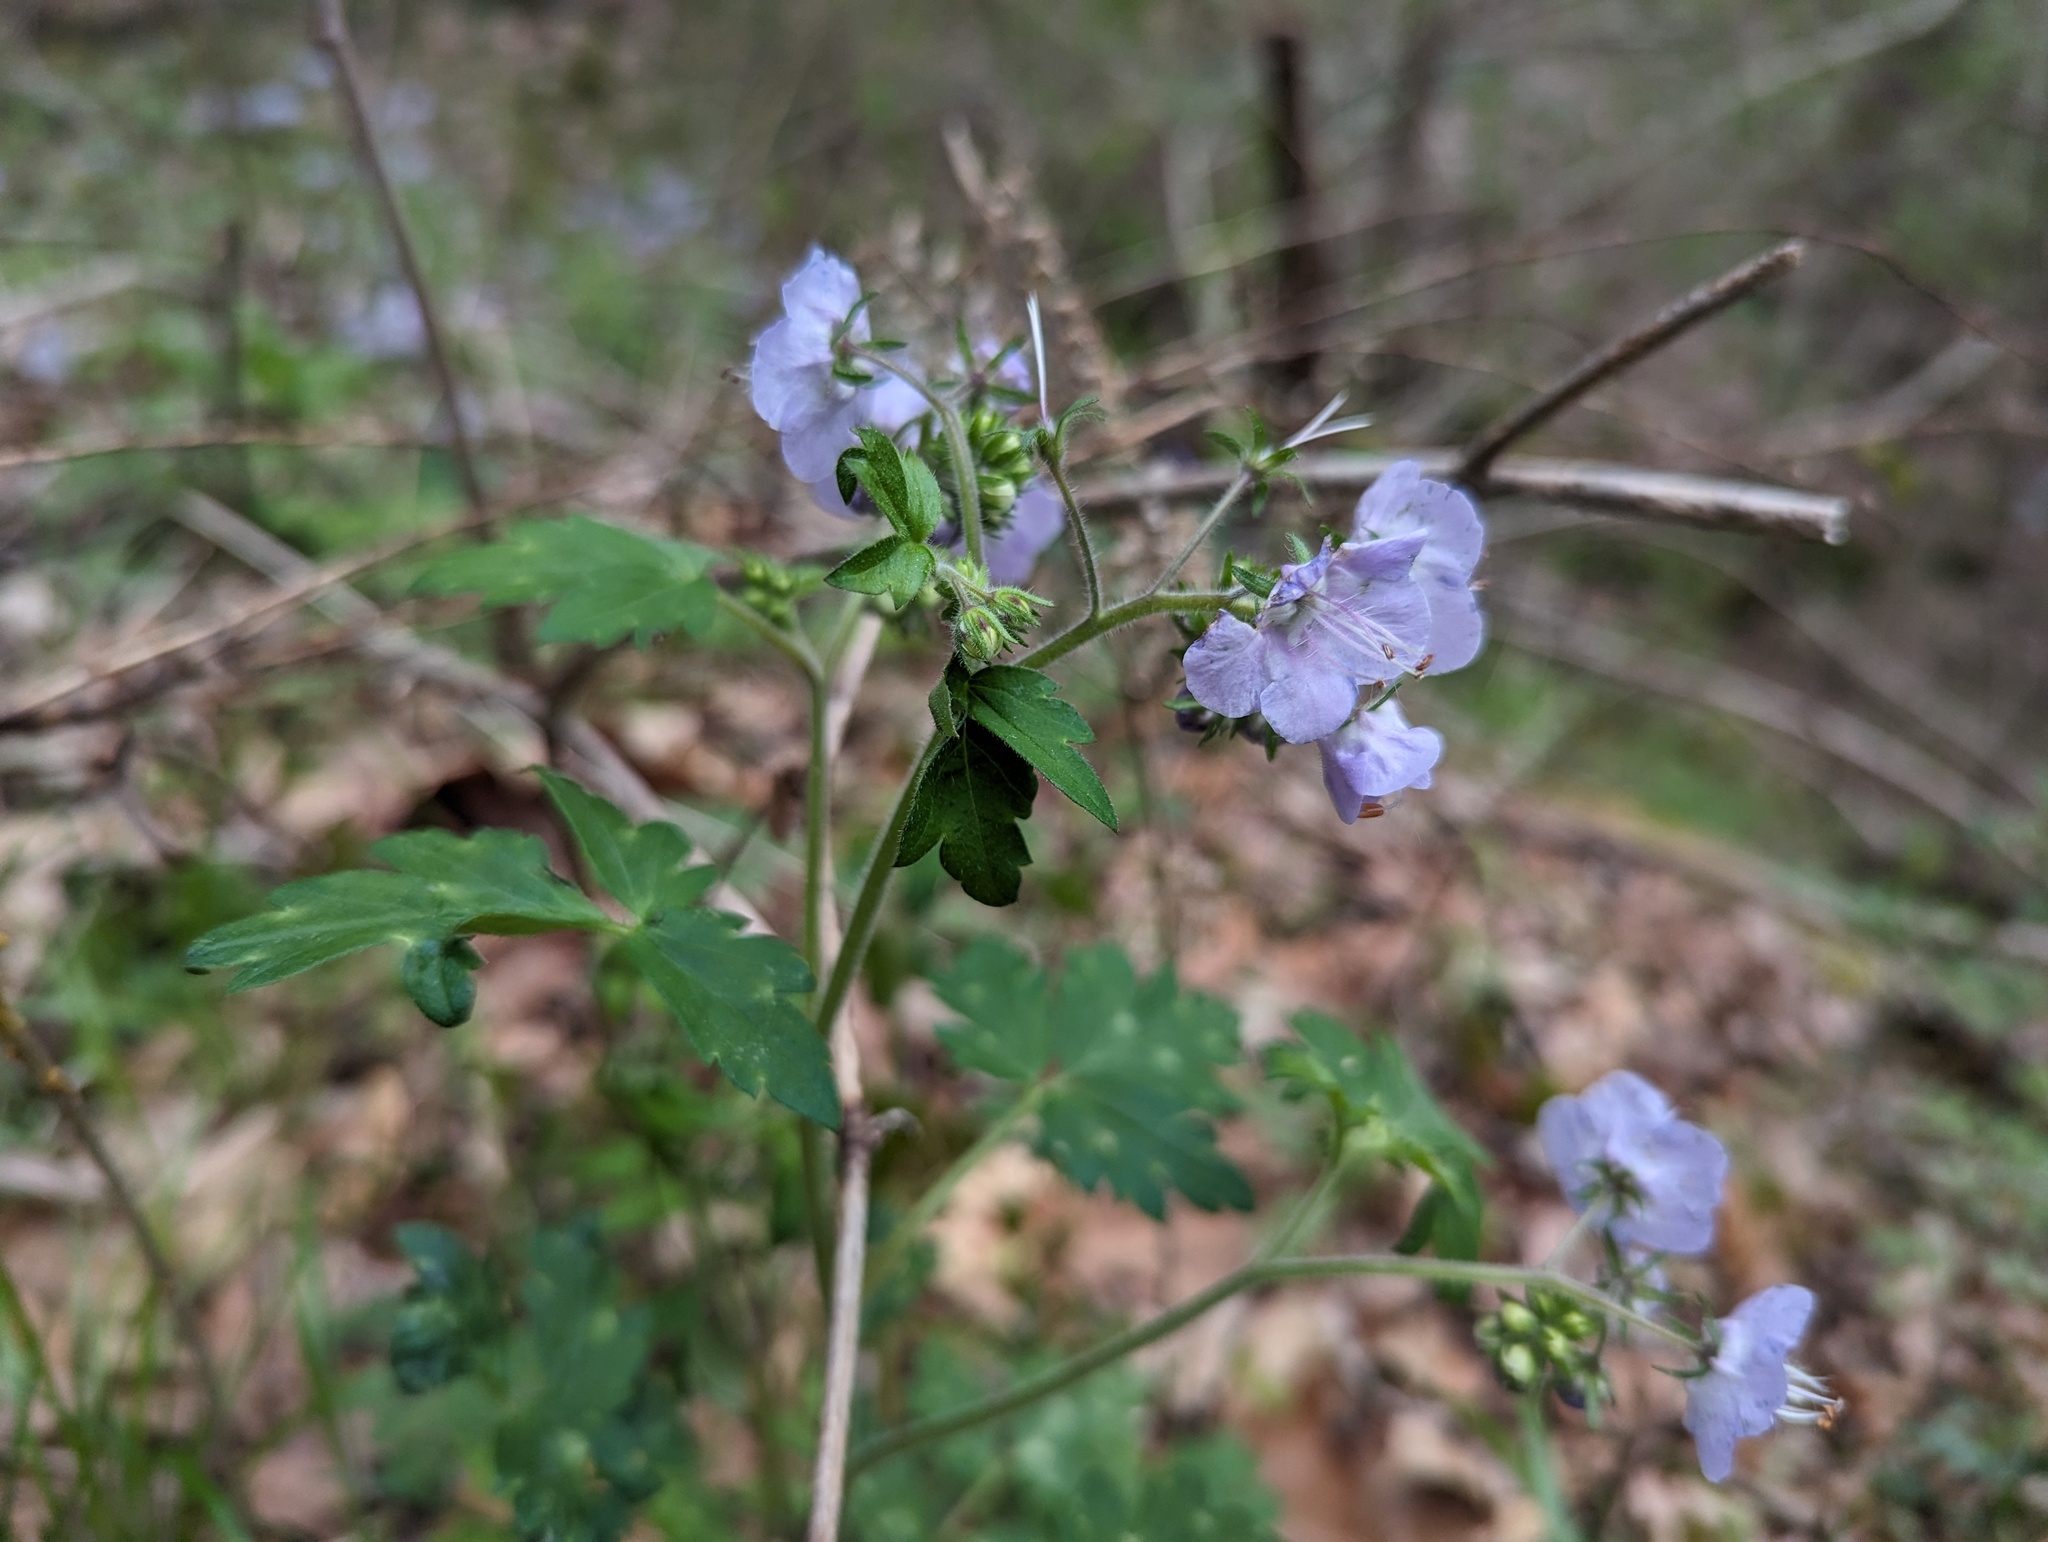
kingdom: Plantae
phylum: Tracheophyta
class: Magnoliopsida
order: Boraginales
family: Hydrophyllaceae
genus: Phacelia
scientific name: Phacelia bipinnatifida
